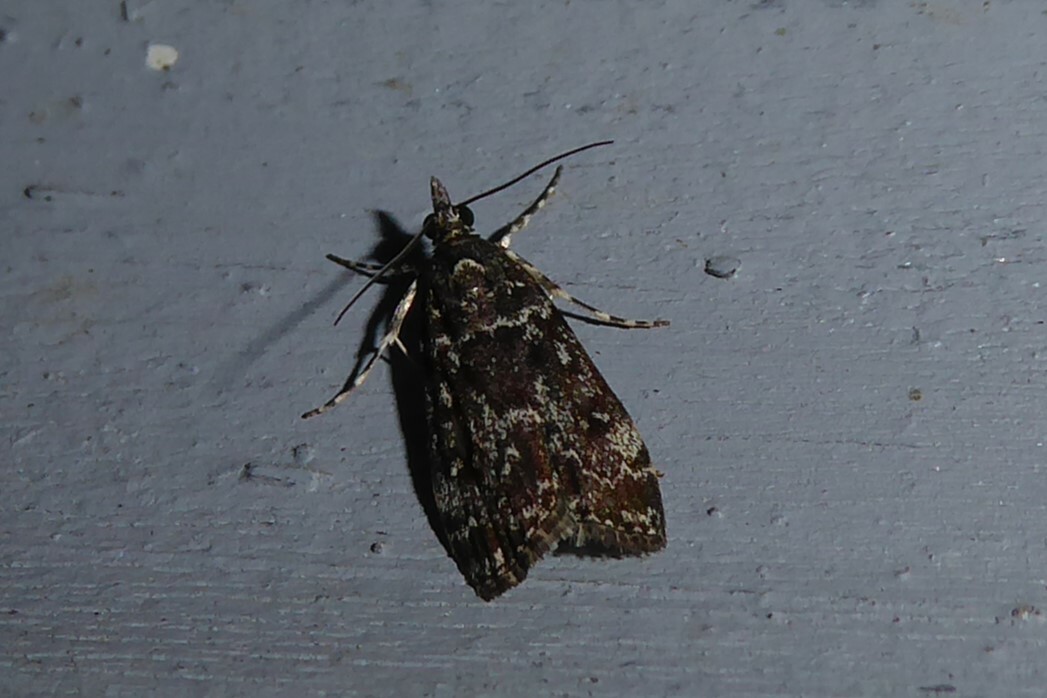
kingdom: Animalia
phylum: Arthropoda
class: Insecta
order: Lepidoptera
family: Crambidae
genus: Eudonia
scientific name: Eudonia philerga
